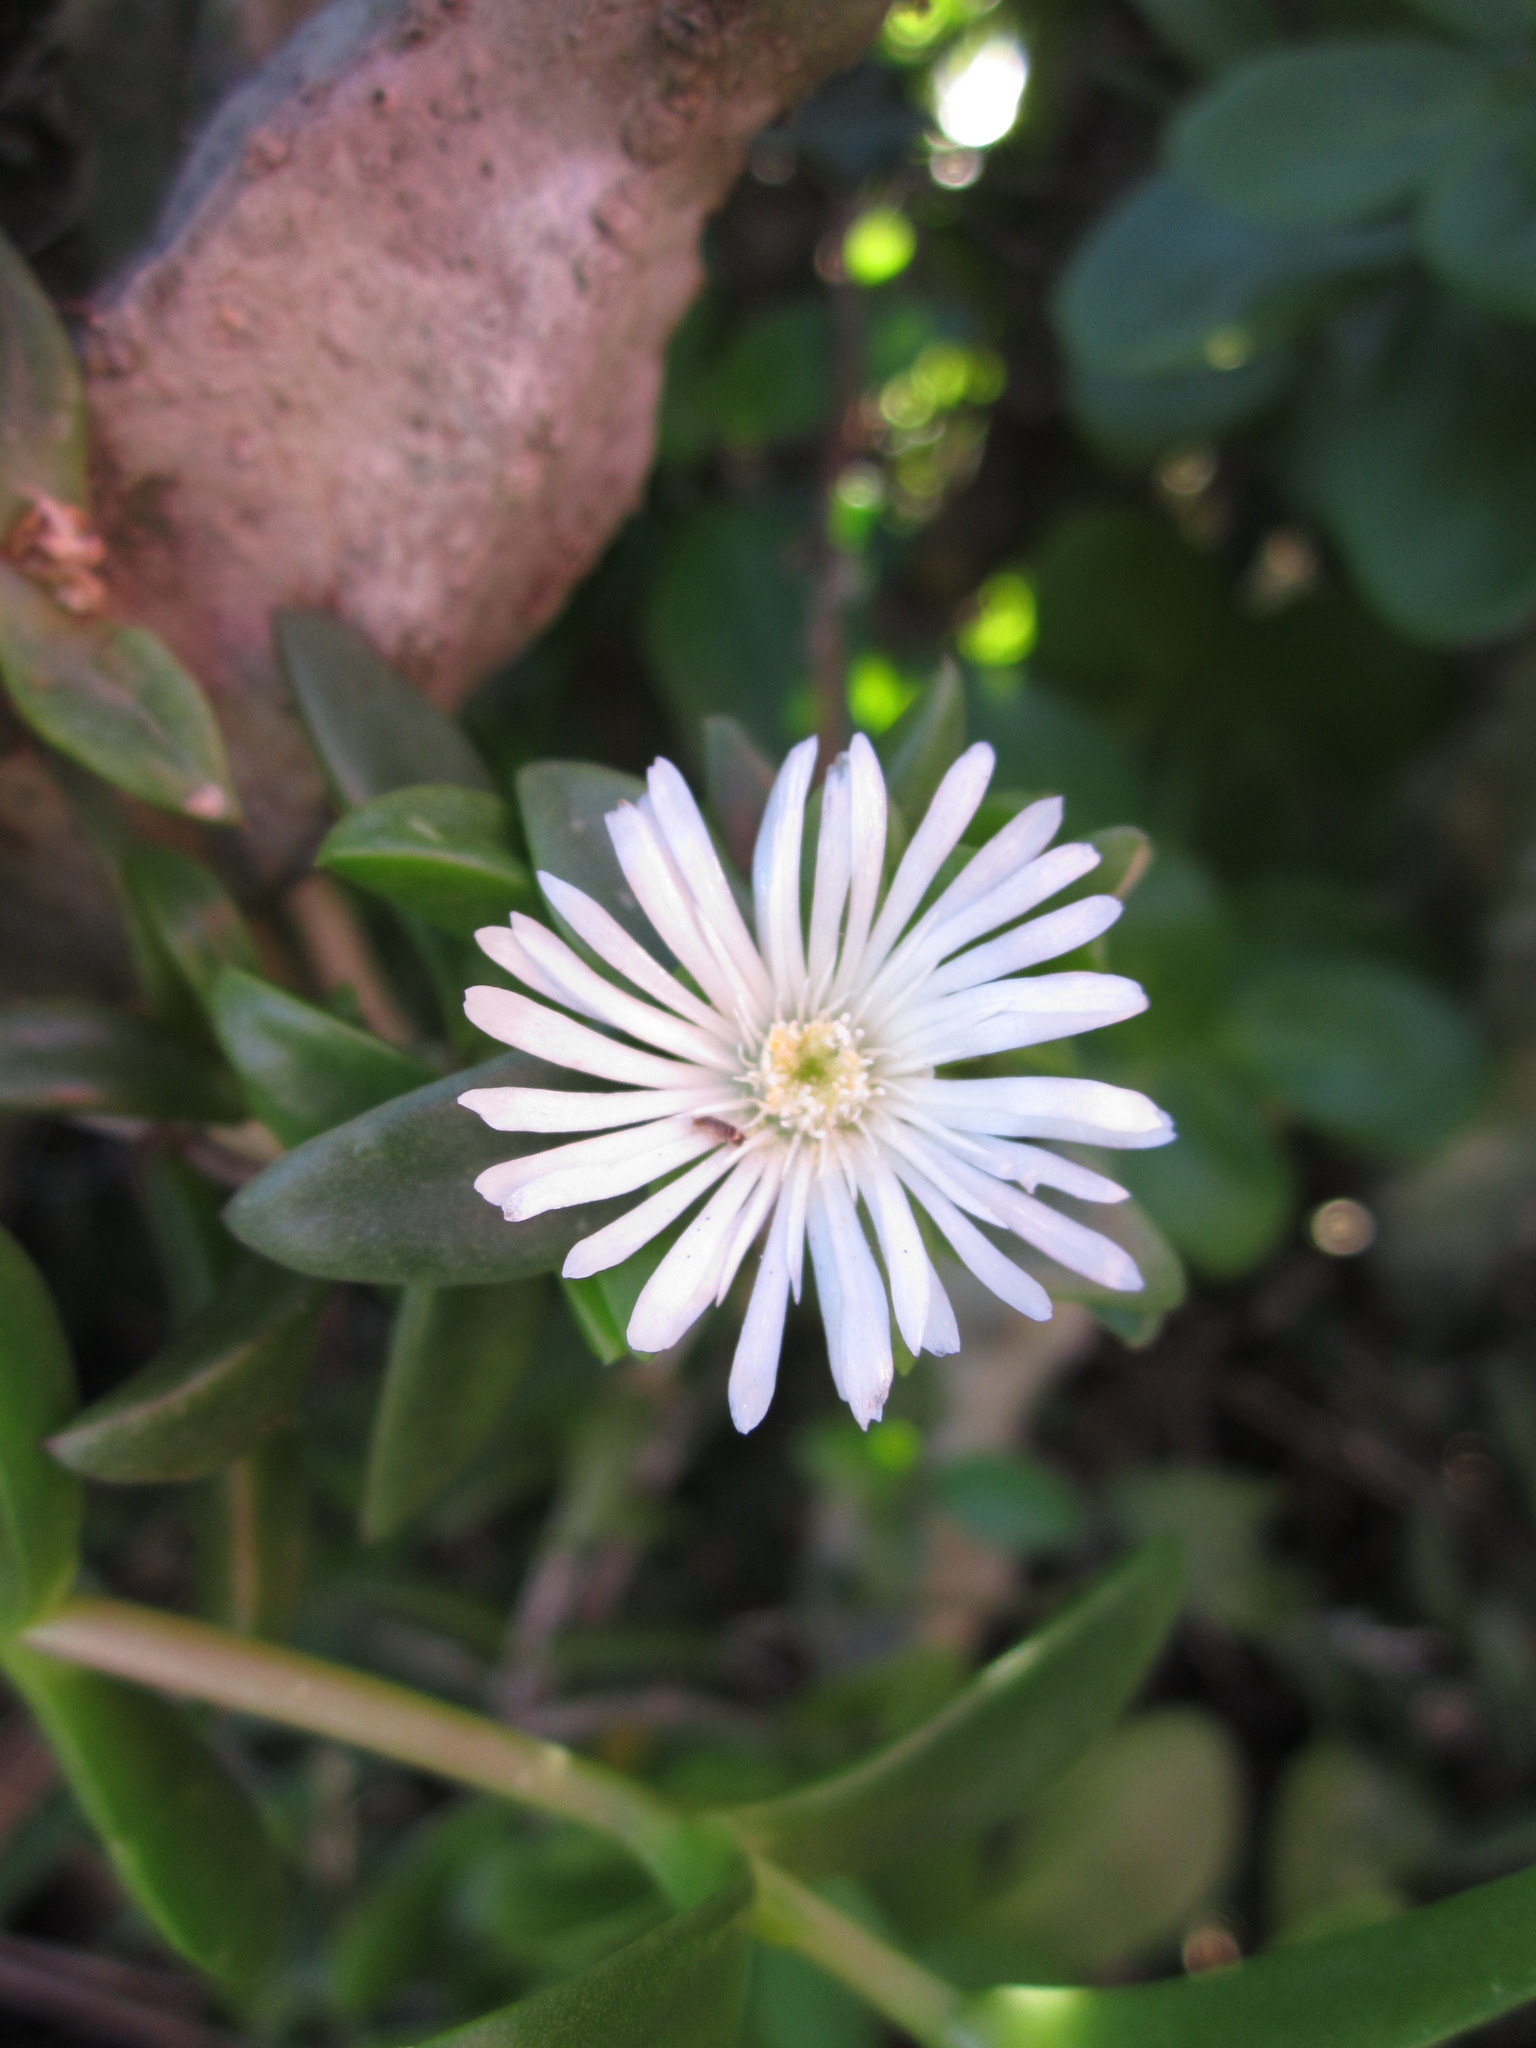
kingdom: Plantae
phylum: Tracheophyta
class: Magnoliopsida
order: Caryophyllales
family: Aizoaceae
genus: Delosperma
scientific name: Delosperma invalidum
